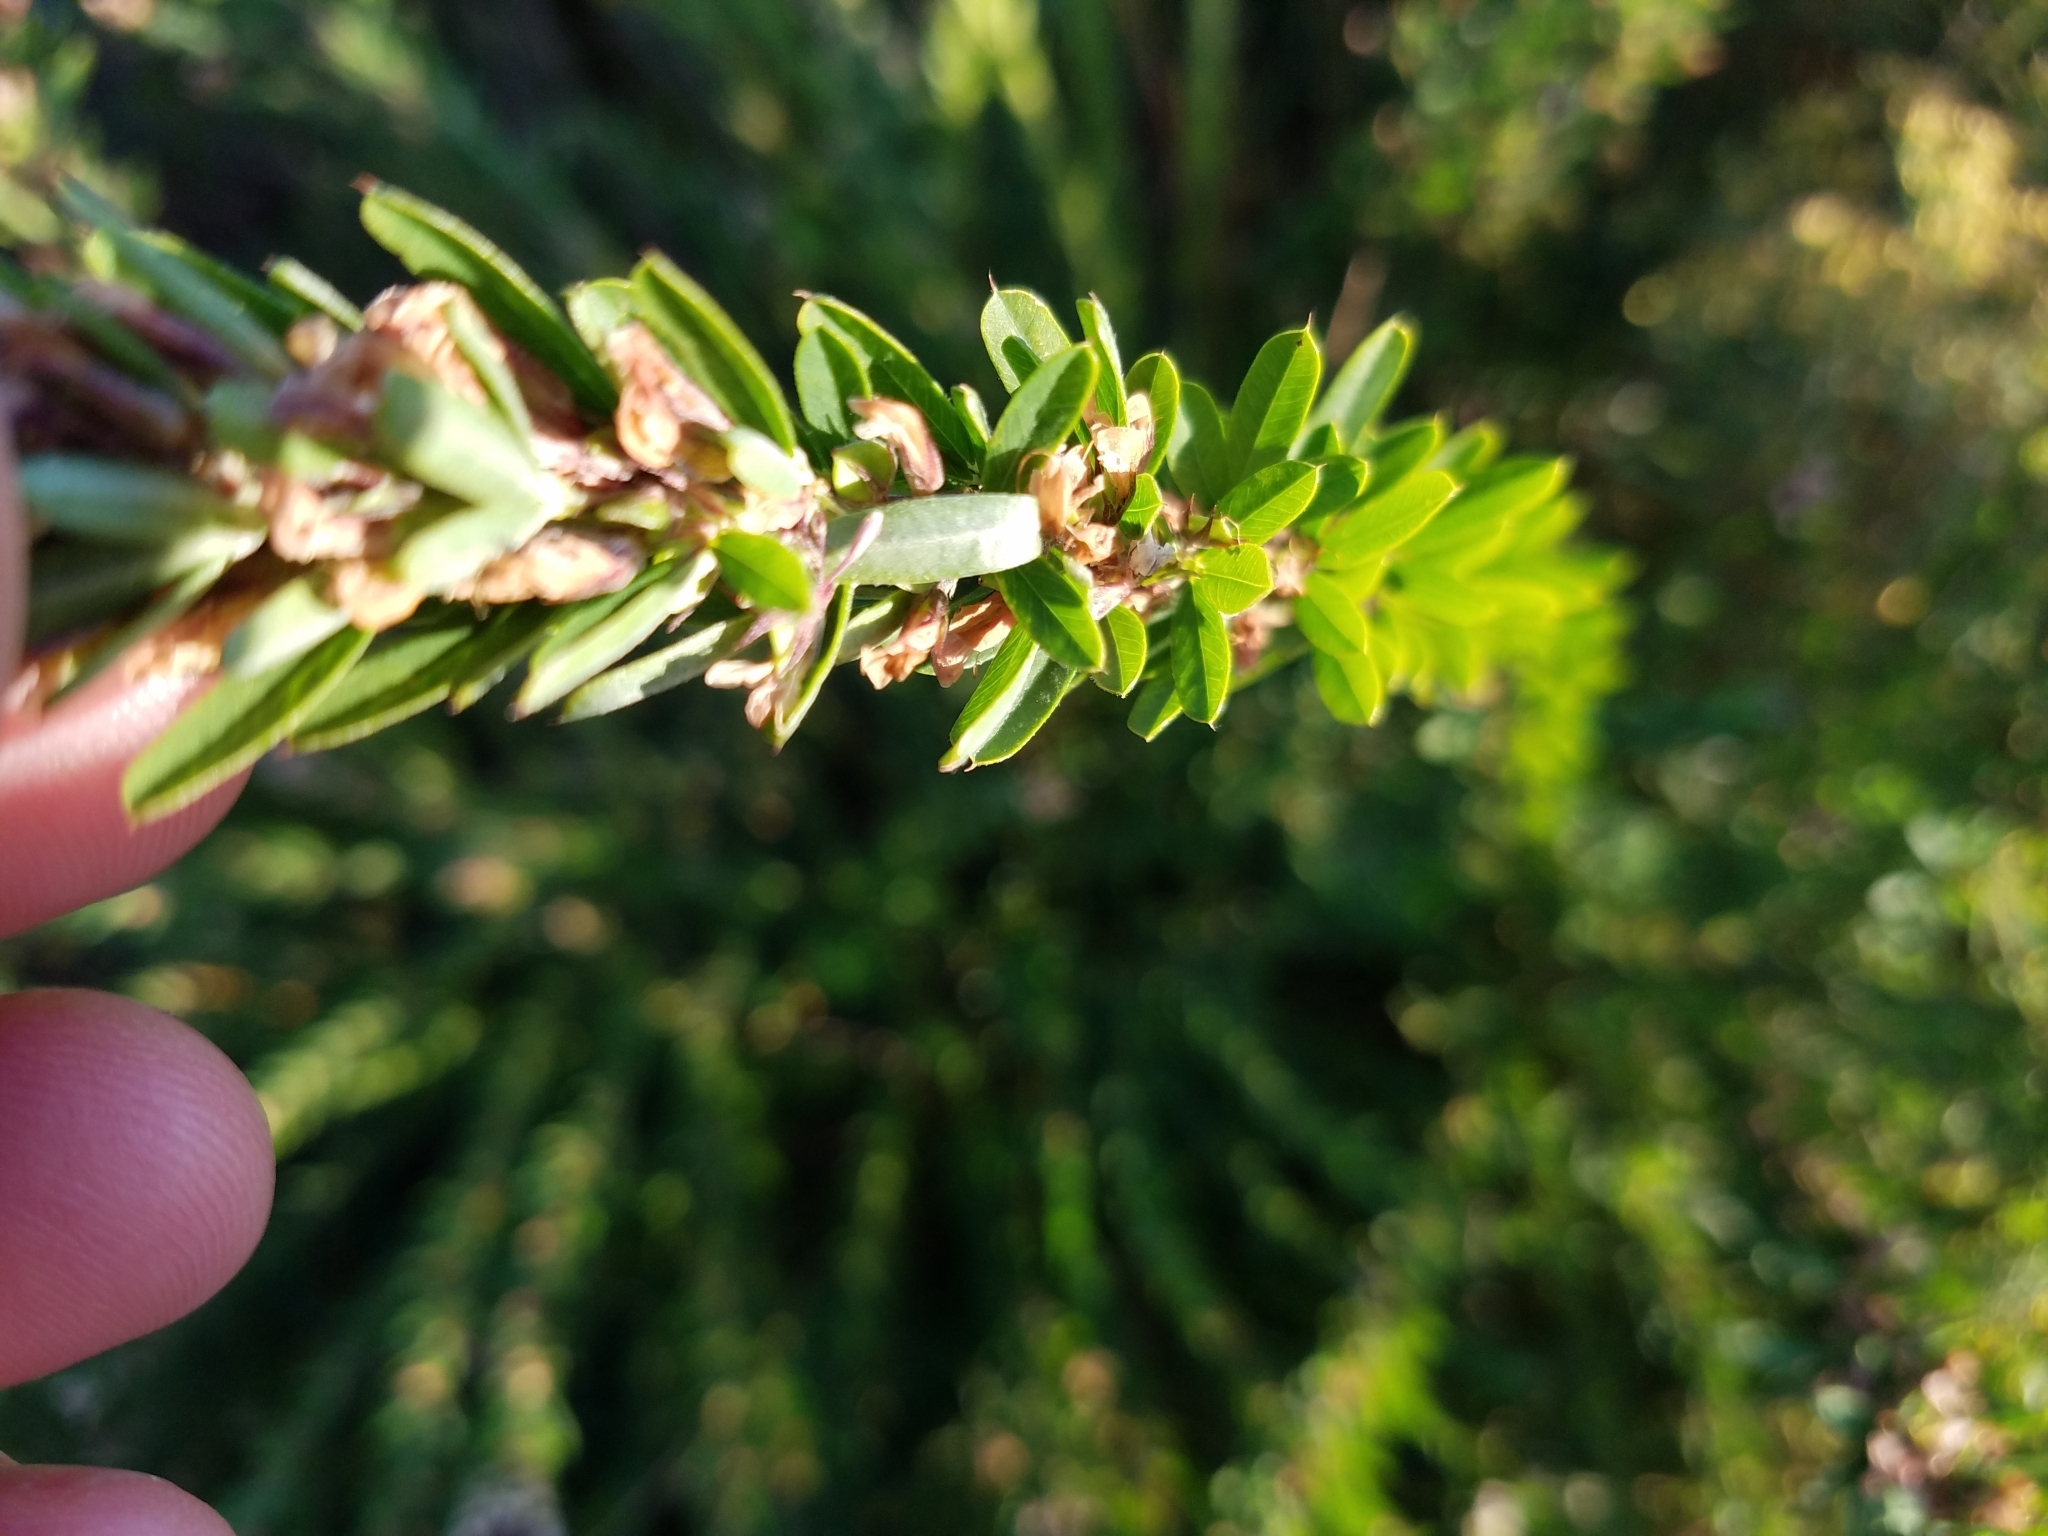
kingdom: Plantae
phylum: Tracheophyta
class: Magnoliopsida
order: Fabales
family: Fabaceae
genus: Lespedeza
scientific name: Lespedeza cuneata
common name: Chinese bush-clover
